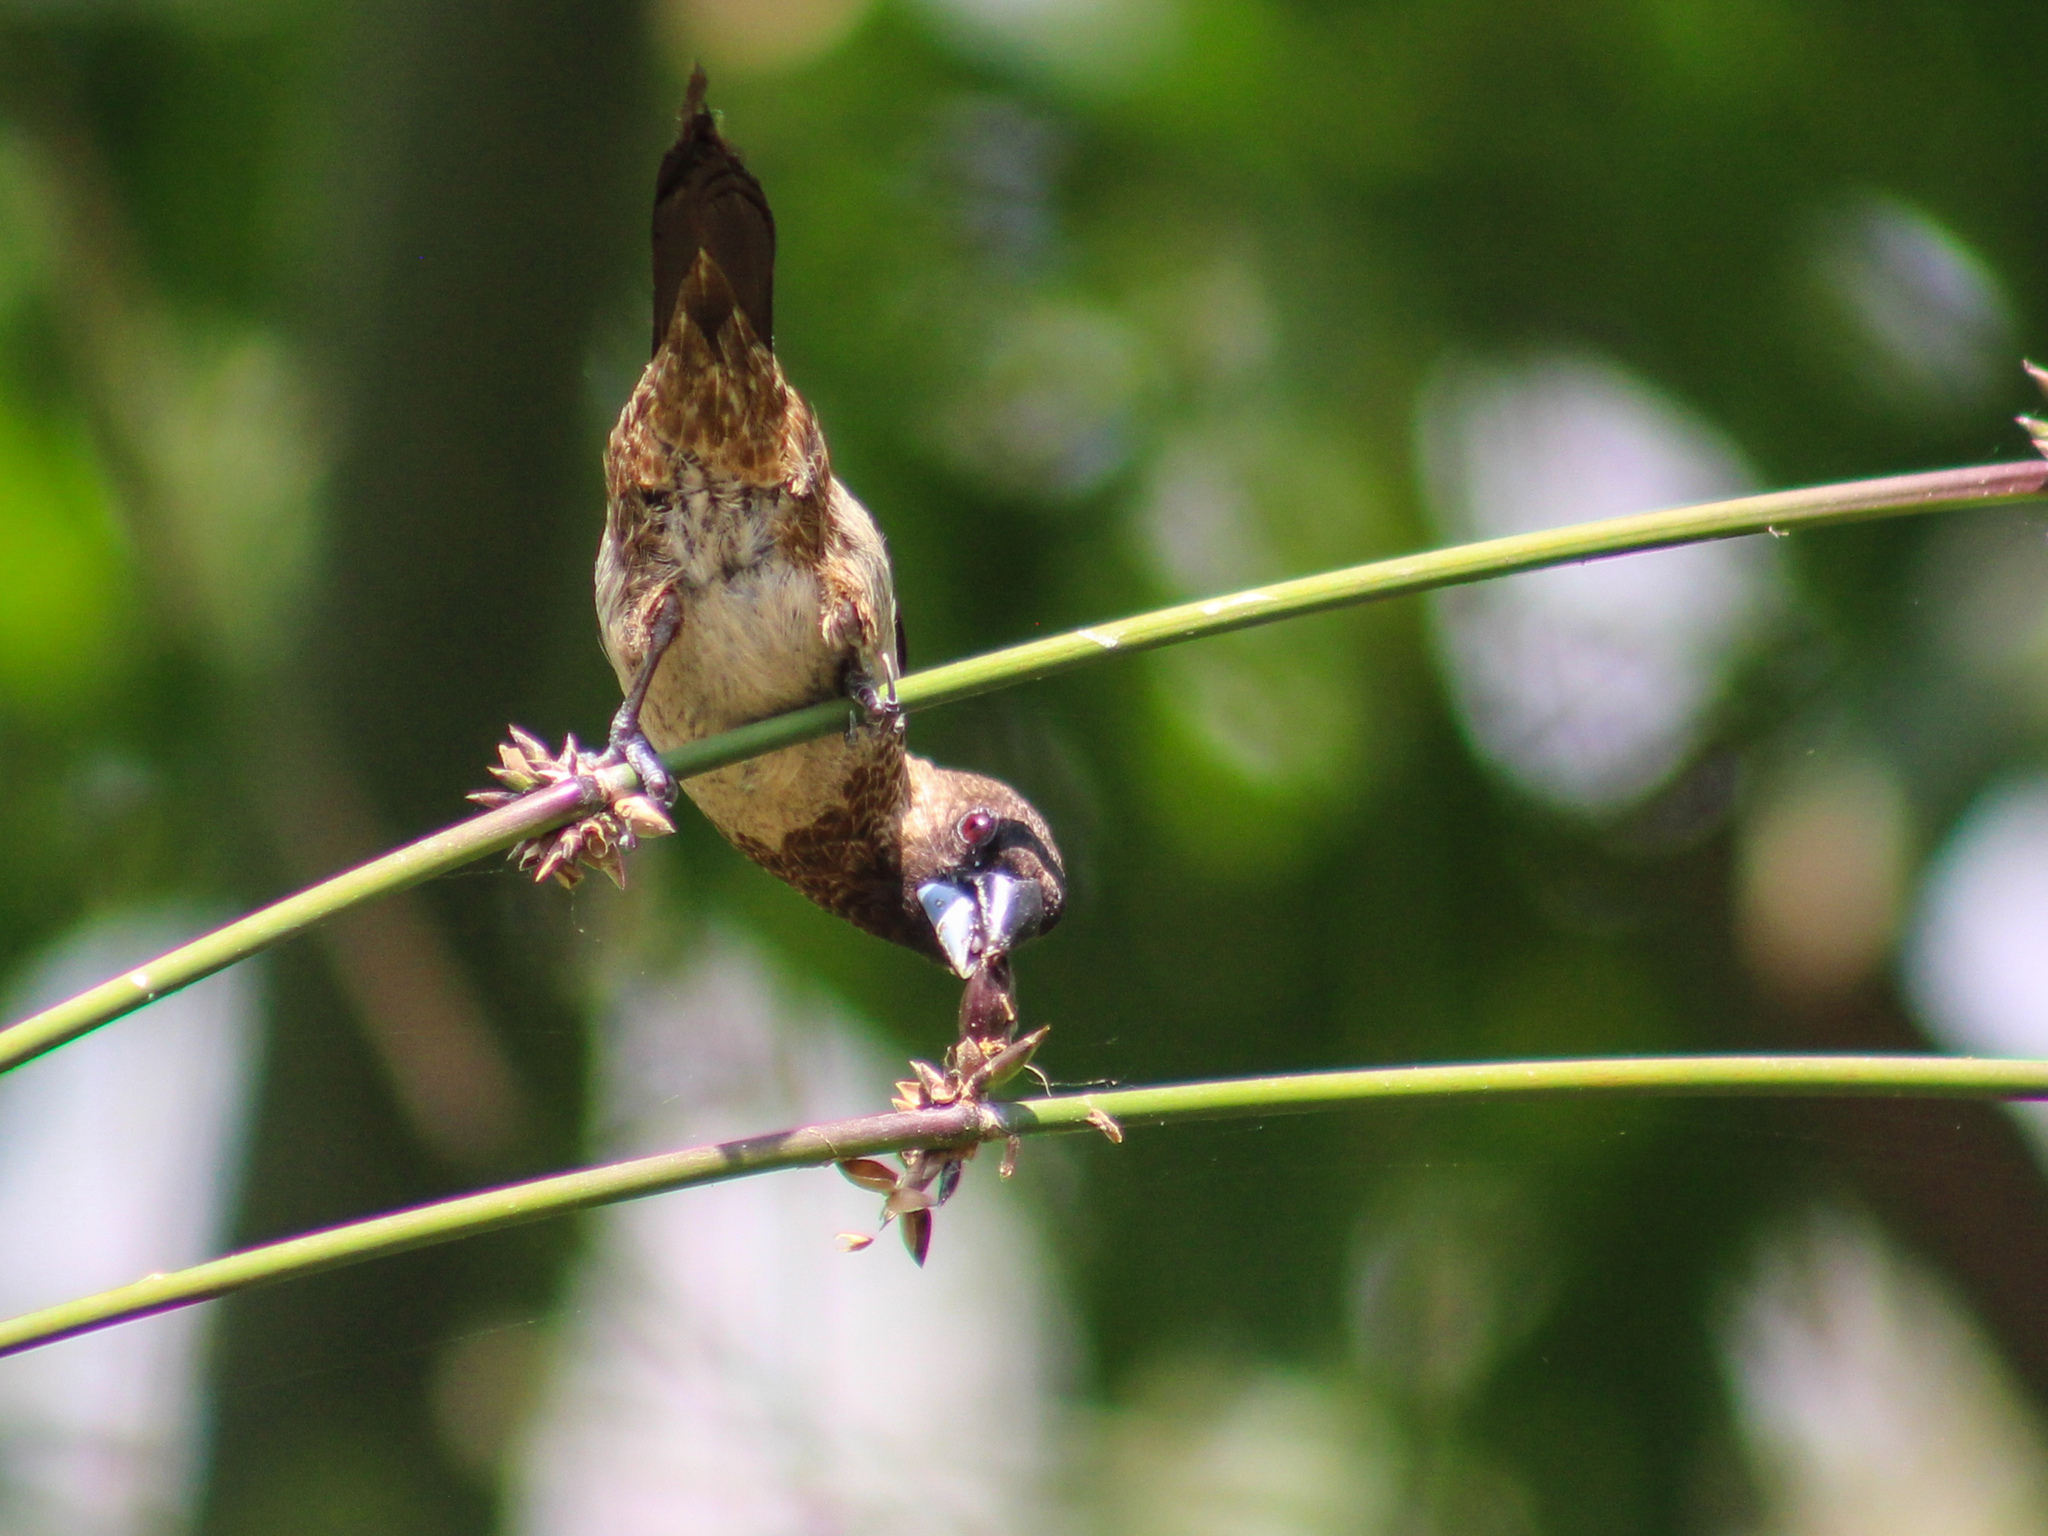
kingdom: Animalia
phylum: Chordata
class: Aves
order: Passeriformes
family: Estrildidae
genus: Lonchura
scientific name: Lonchura striata
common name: White-rumped munia
